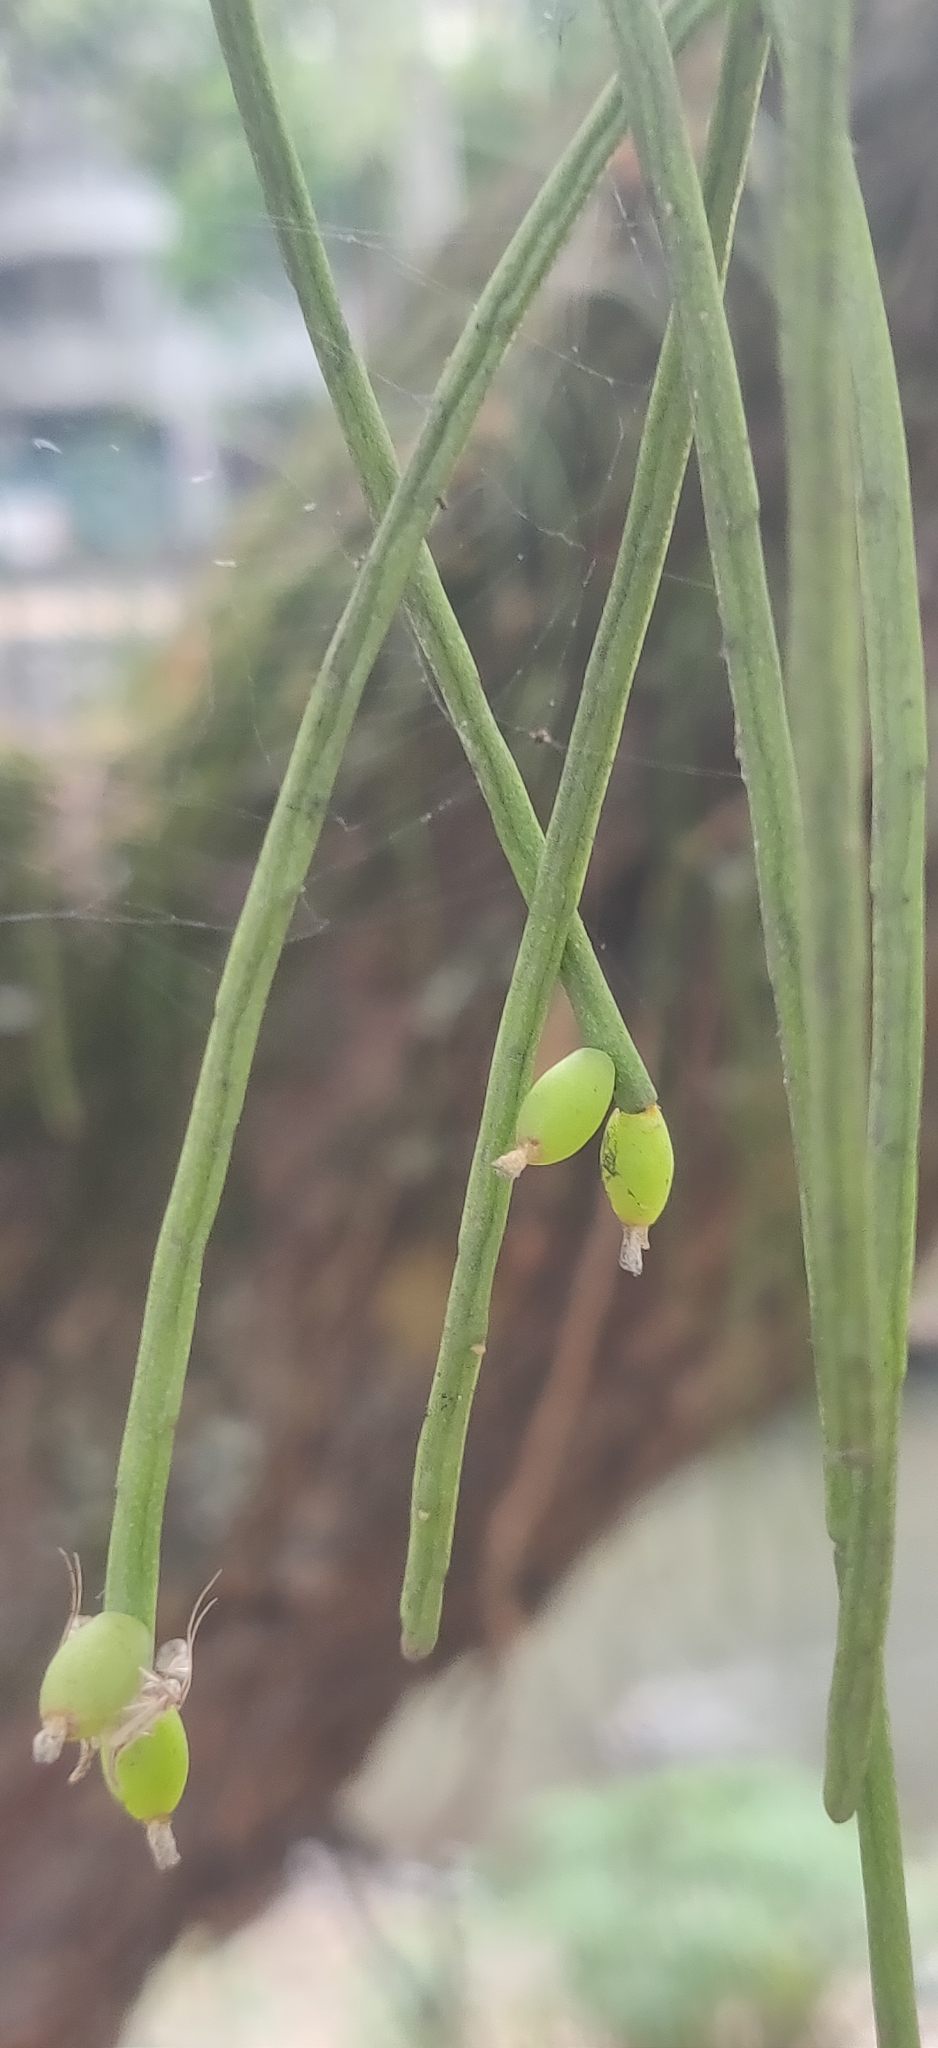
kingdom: Plantae
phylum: Tracheophyta
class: Magnoliopsida
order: Caryophyllales
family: Cactaceae
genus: Rhipsalis
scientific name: Rhipsalis baccifera
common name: Mistletoe cactus
